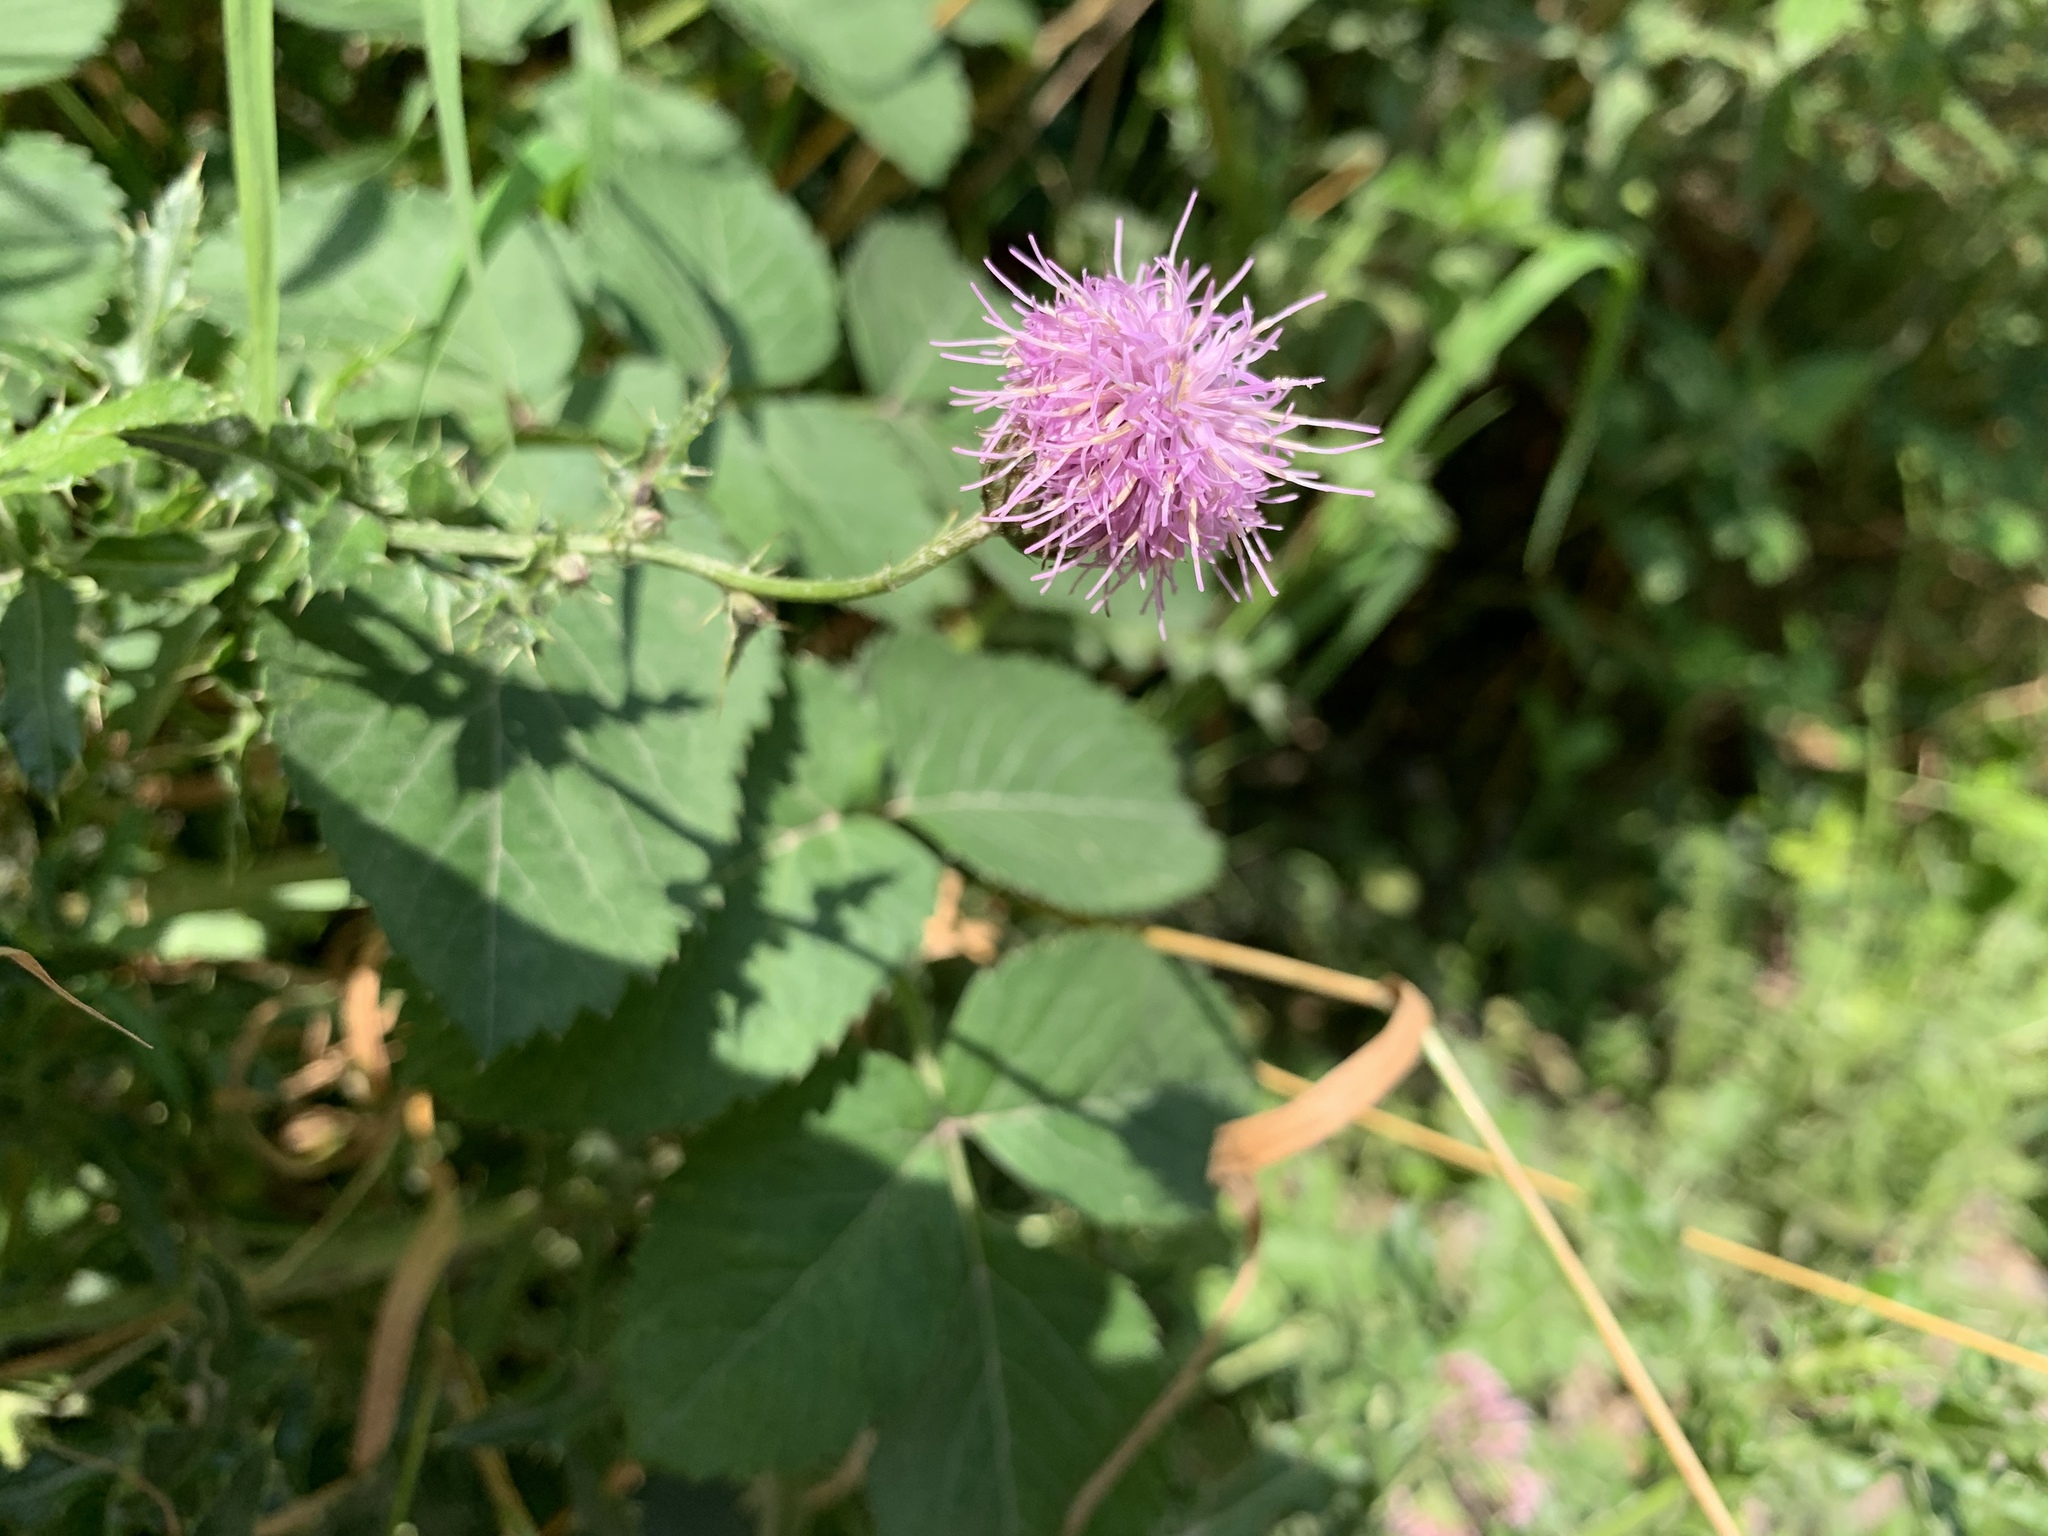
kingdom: Plantae
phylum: Tracheophyta
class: Magnoliopsida
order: Asterales
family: Asteraceae
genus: Cirsium
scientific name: Cirsium arvense
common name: Creeping thistle
